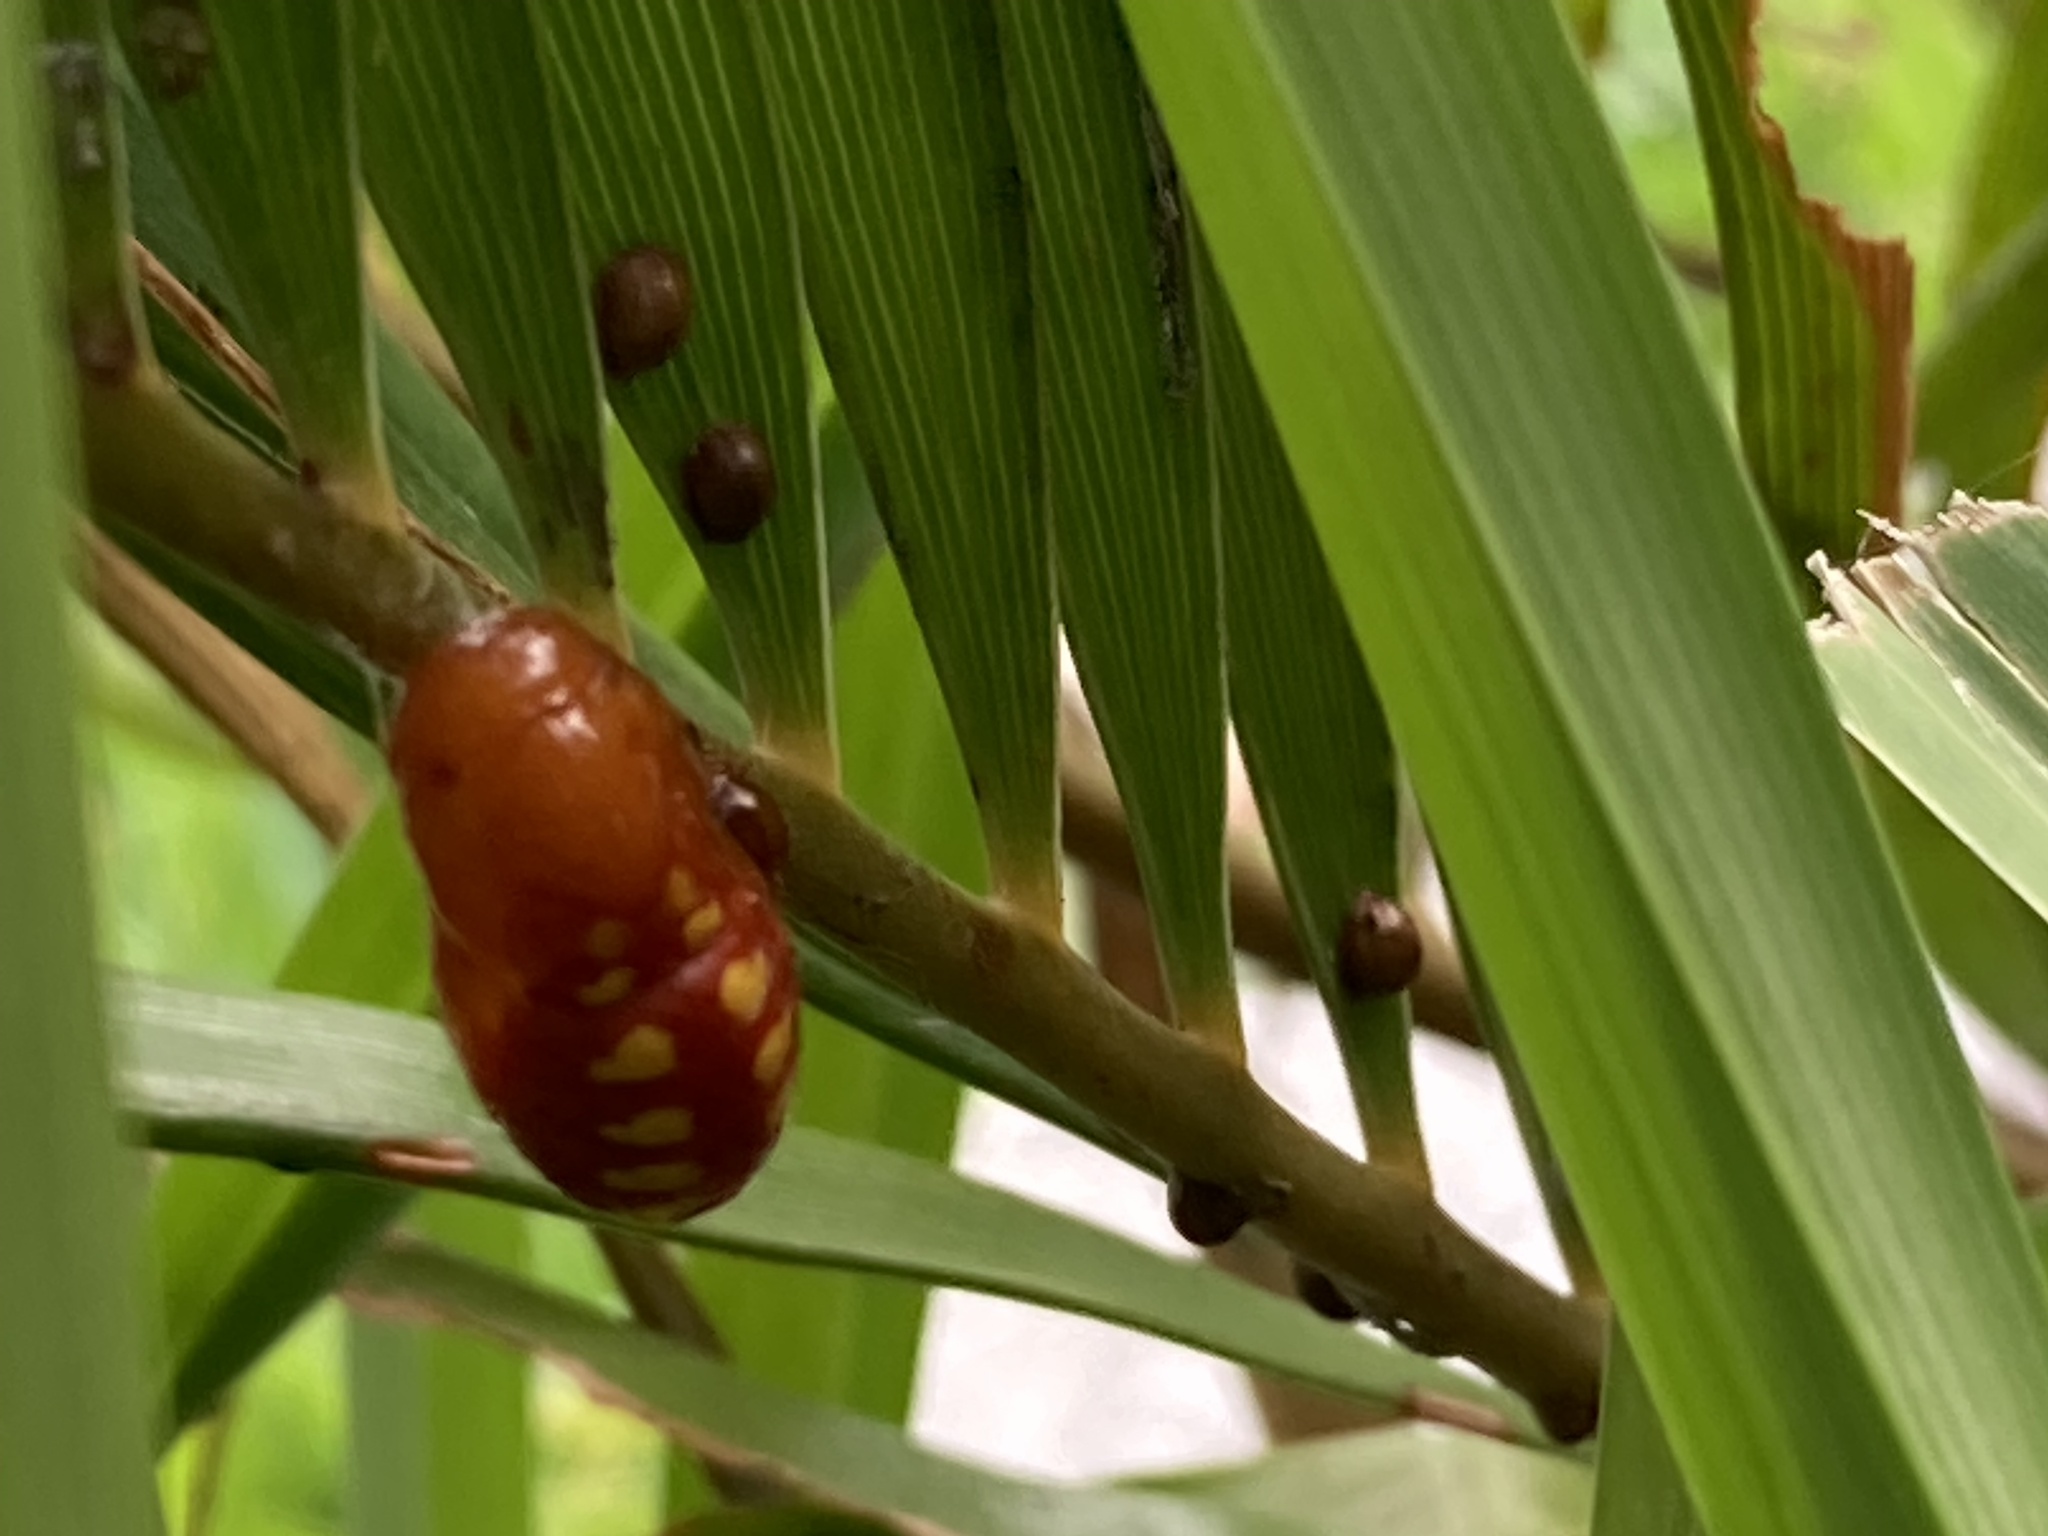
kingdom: Animalia
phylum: Arthropoda
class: Insecta
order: Lepidoptera
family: Lycaenidae
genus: Eumaeus
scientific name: Eumaeus atala
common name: Atala
